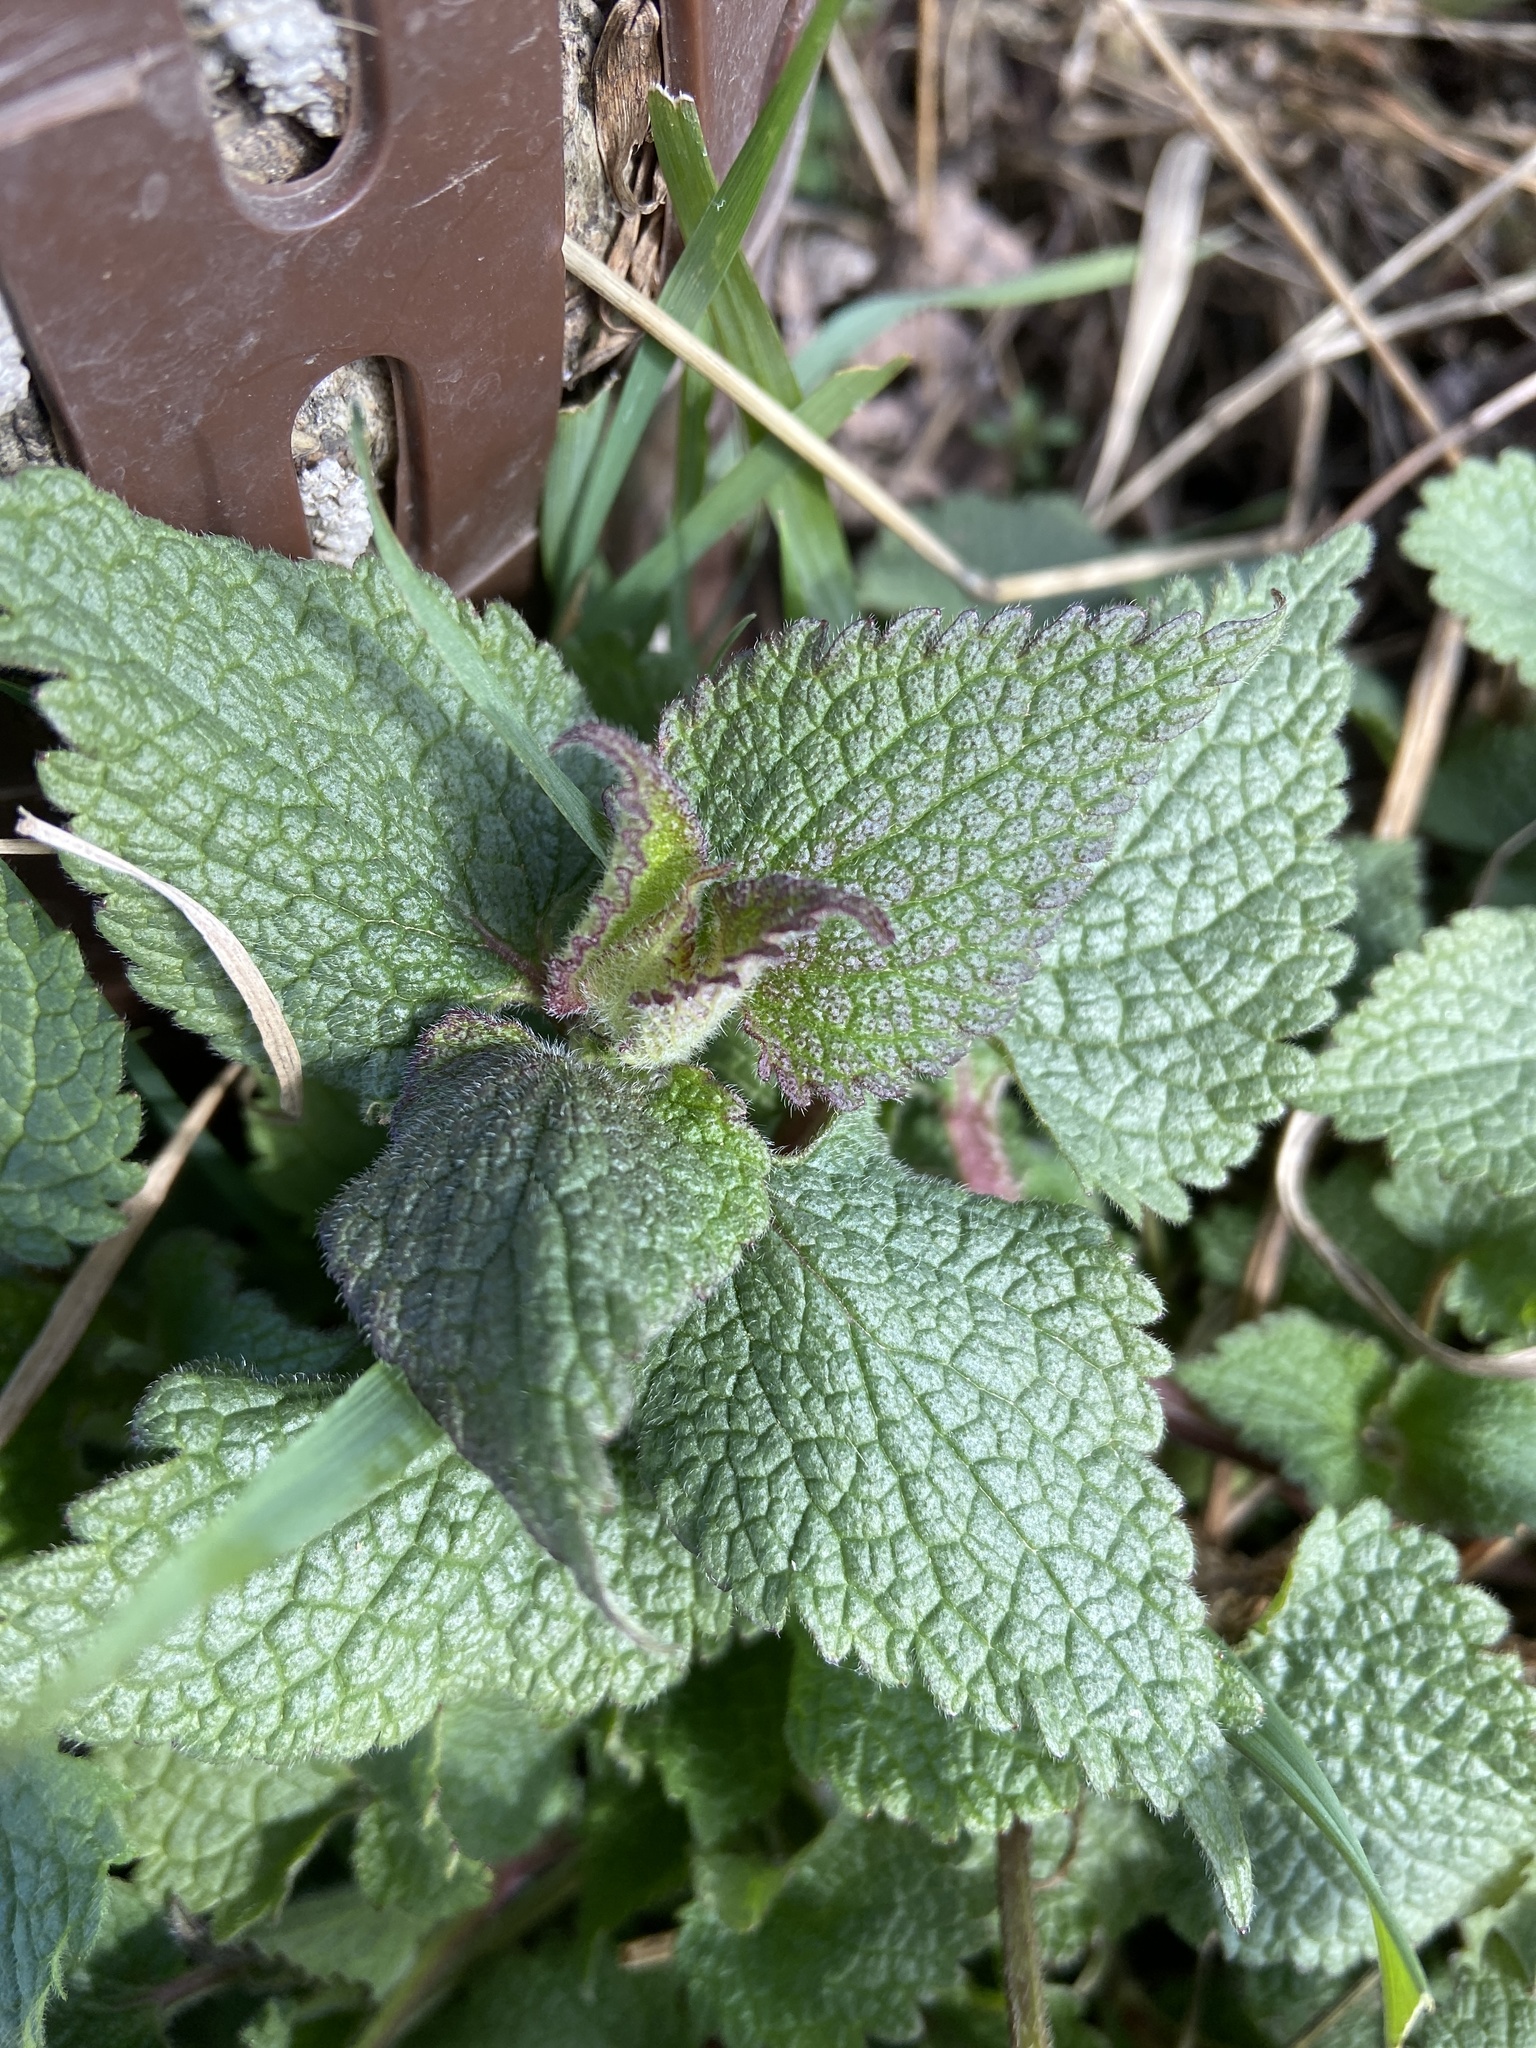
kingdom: Plantae
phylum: Tracheophyta
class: Magnoliopsida
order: Lamiales
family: Lamiaceae
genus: Lamium
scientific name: Lamium album
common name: White dead-nettle
